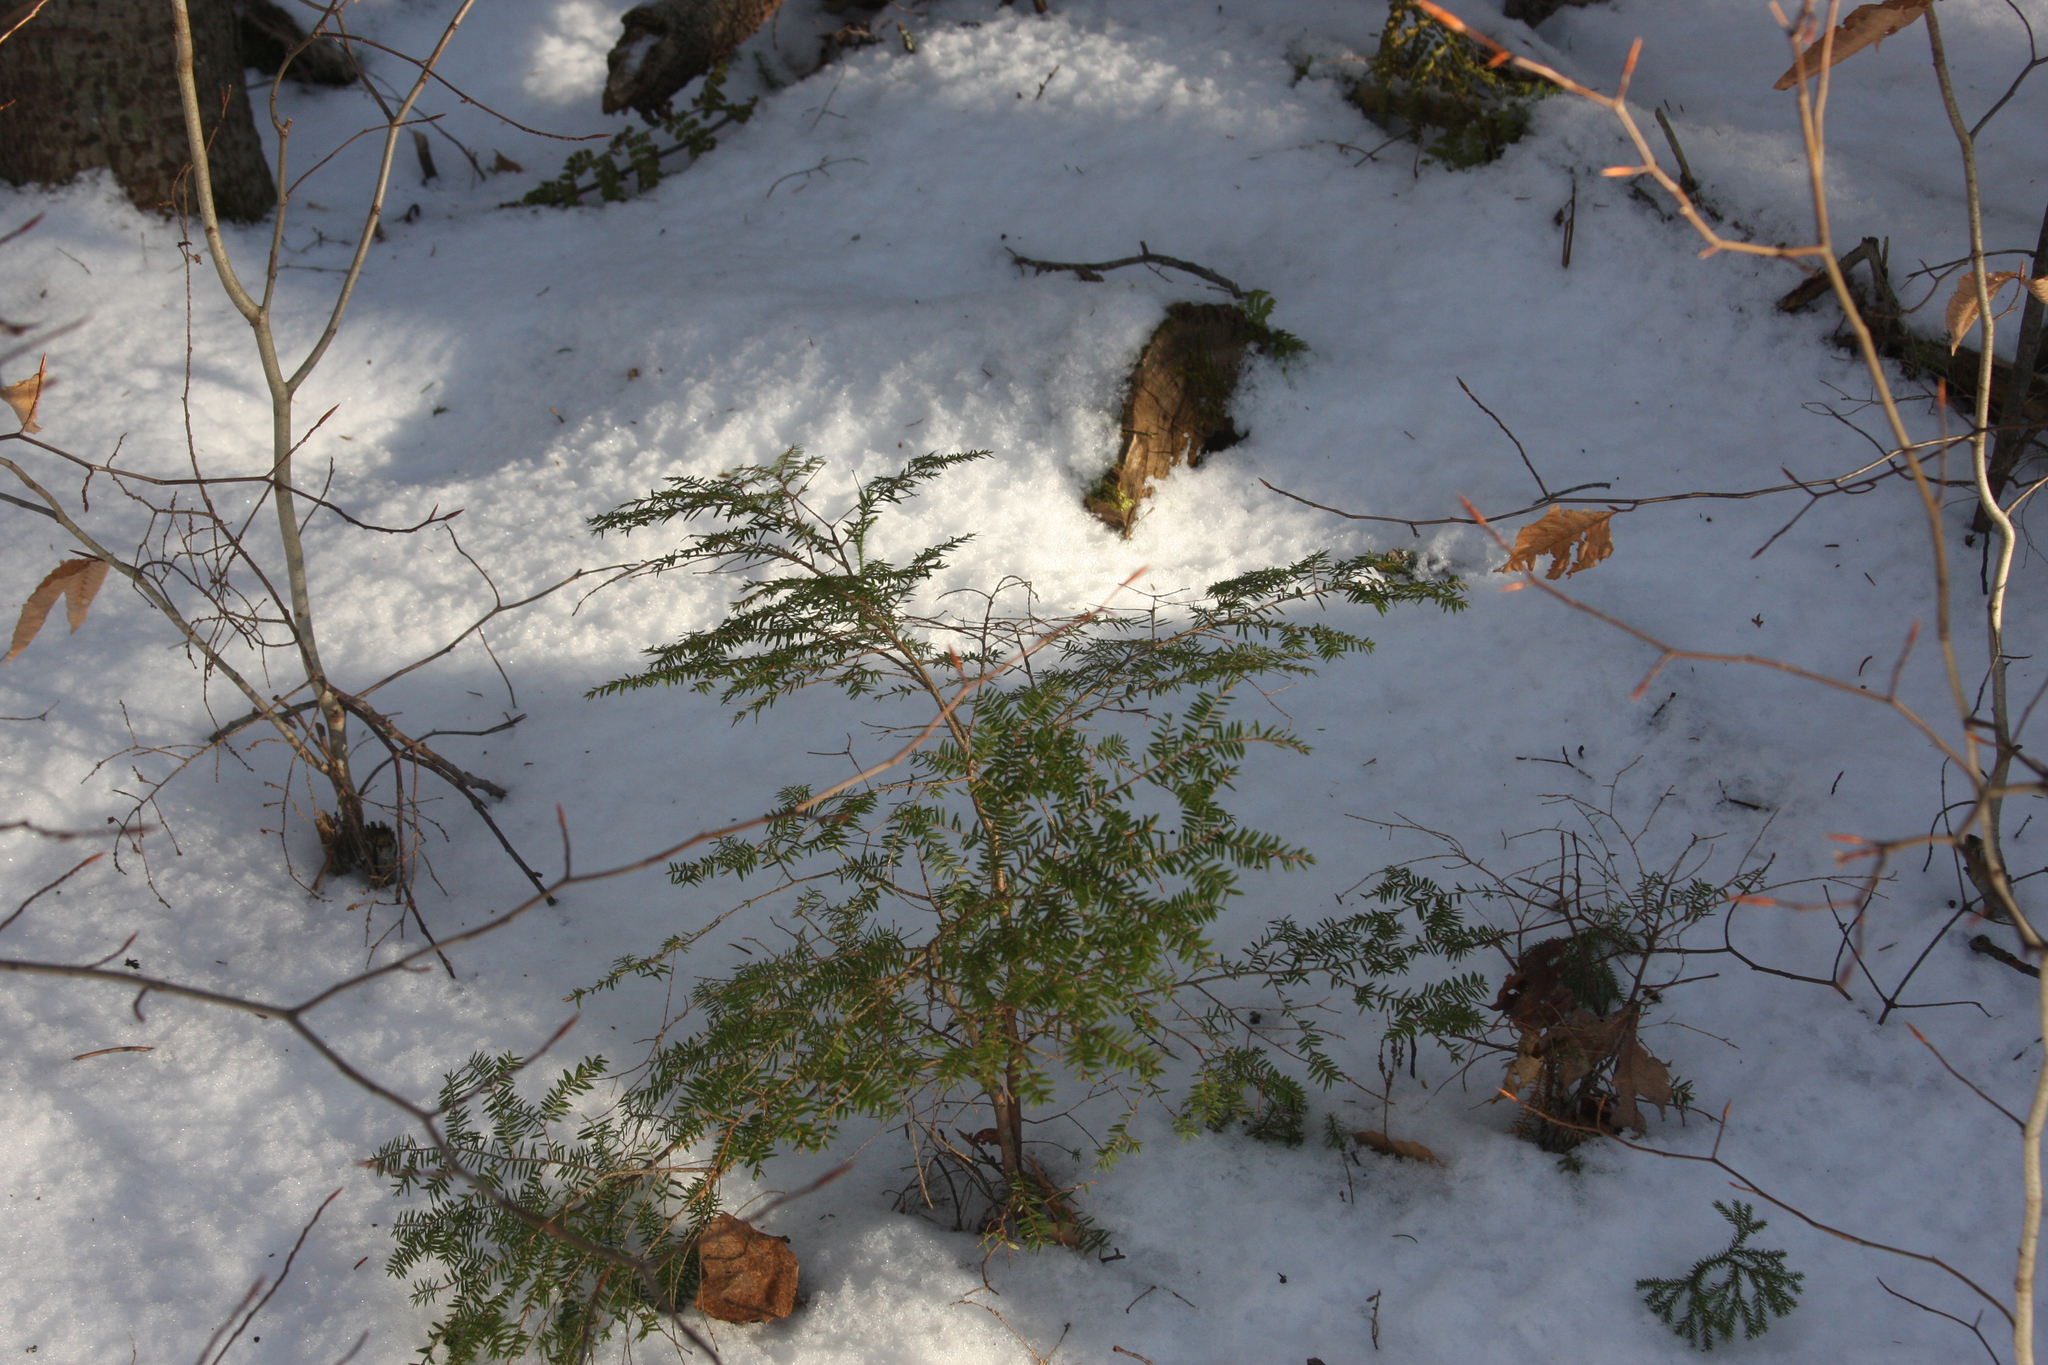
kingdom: Plantae
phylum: Tracheophyta
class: Pinopsida
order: Pinales
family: Pinaceae
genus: Tsuga
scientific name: Tsuga canadensis
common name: Eastern hemlock
